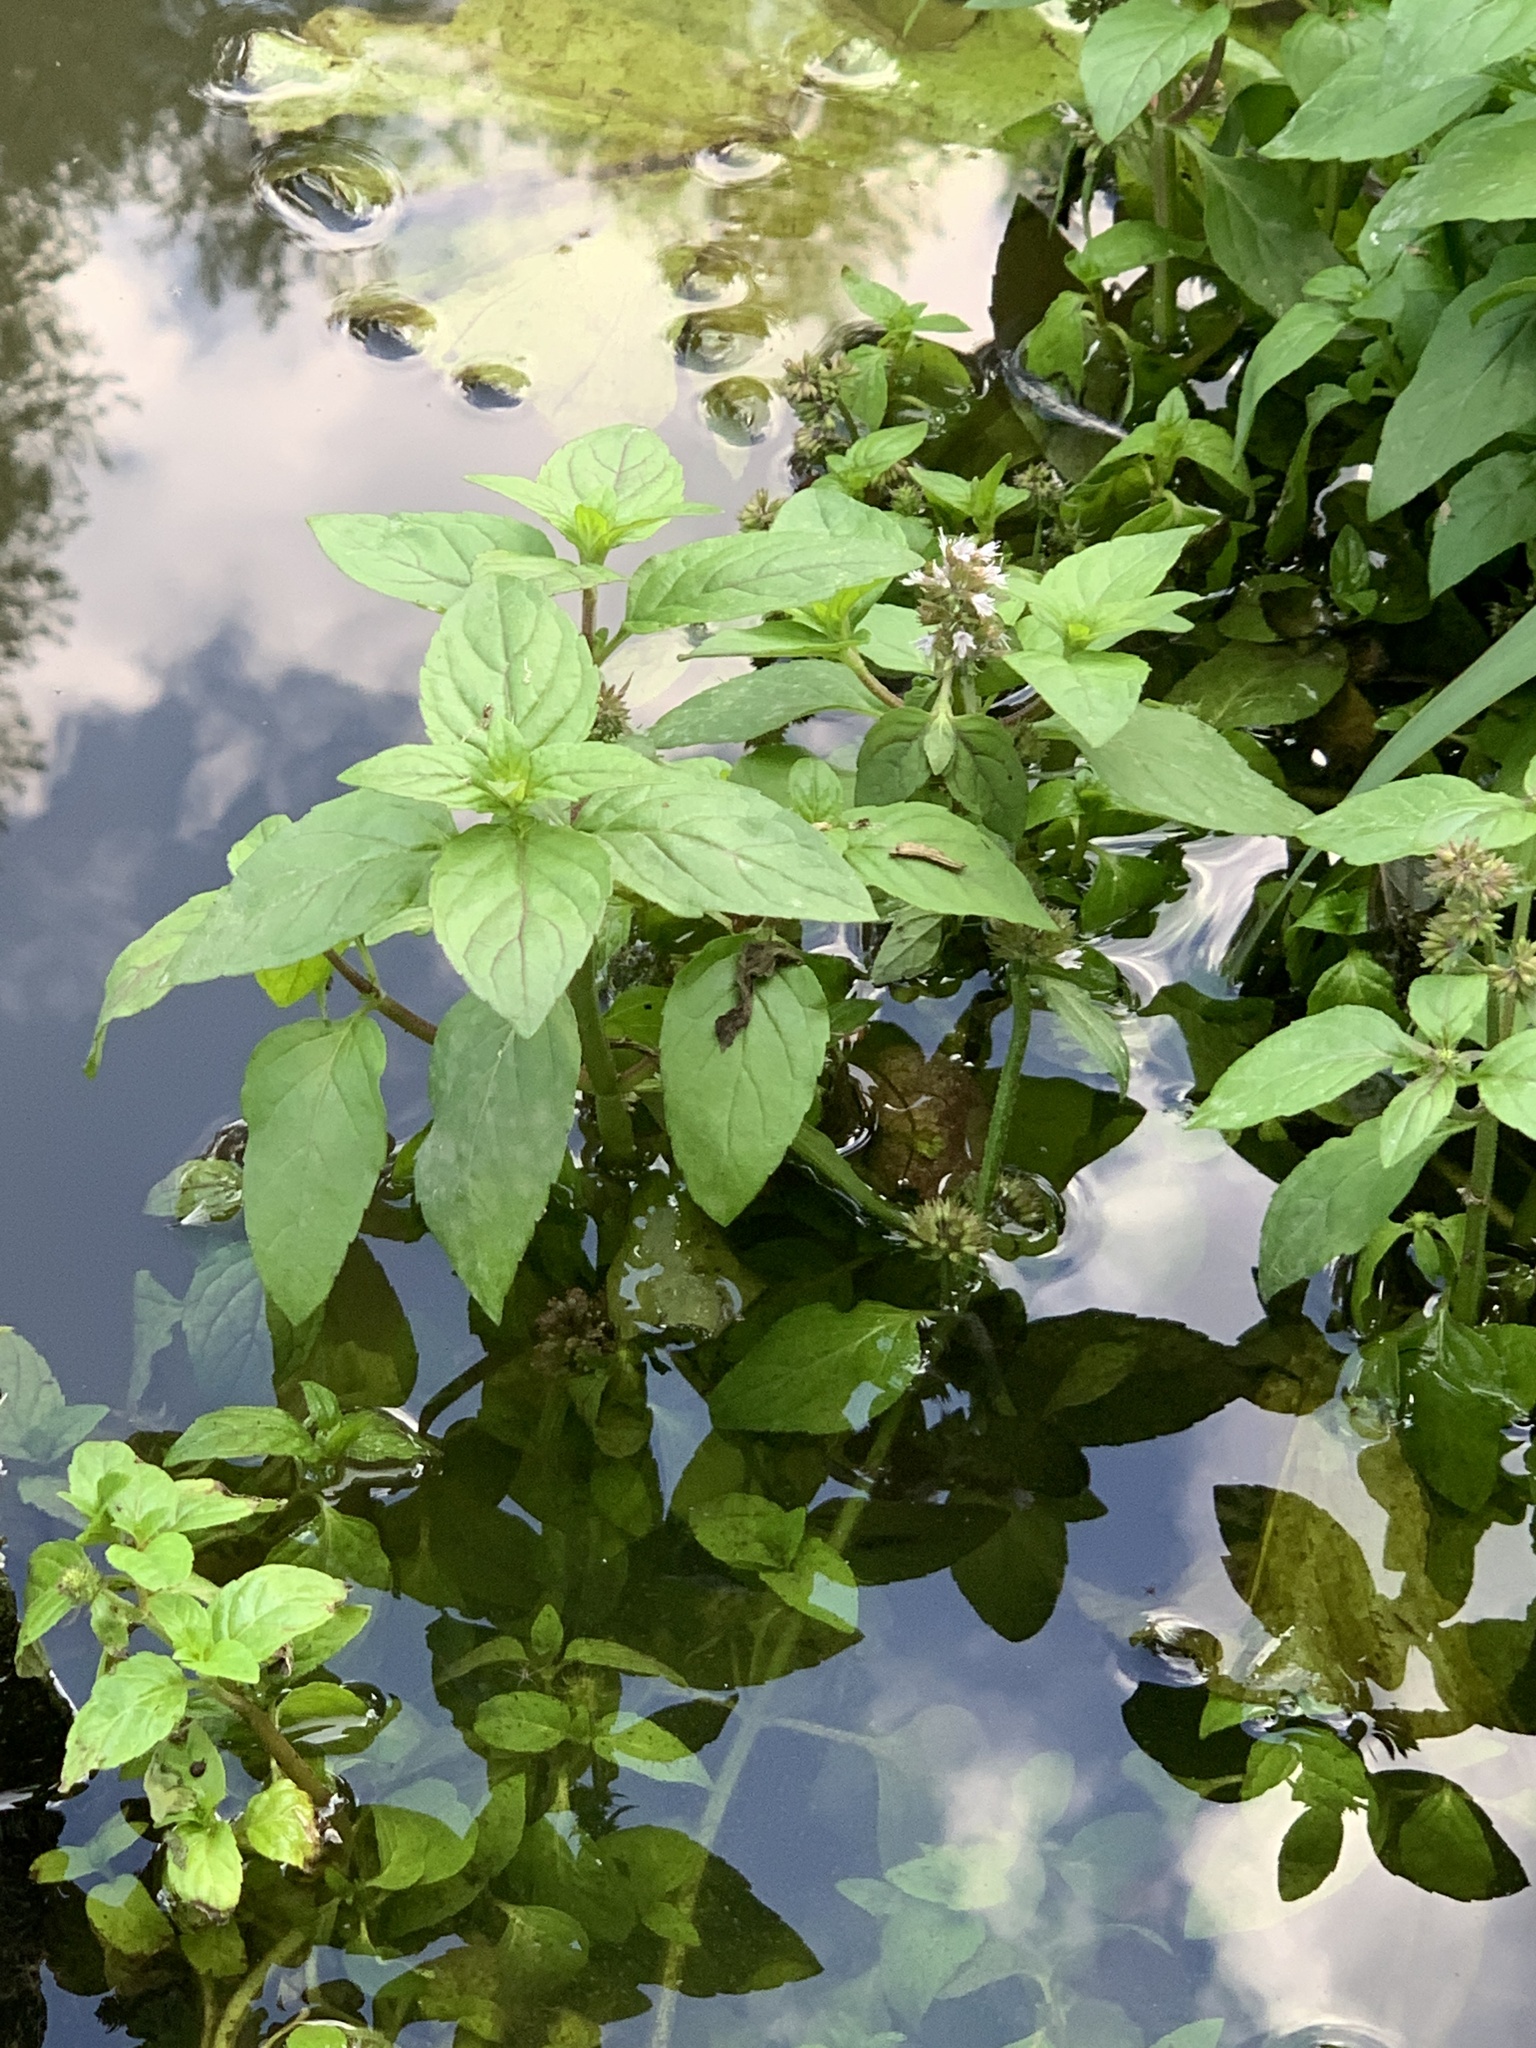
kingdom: Plantae
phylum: Tracheophyta
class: Magnoliopsida
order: Lamiales
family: Lamiaceae
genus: Mentha
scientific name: Mentha aquatica
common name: Water mint
